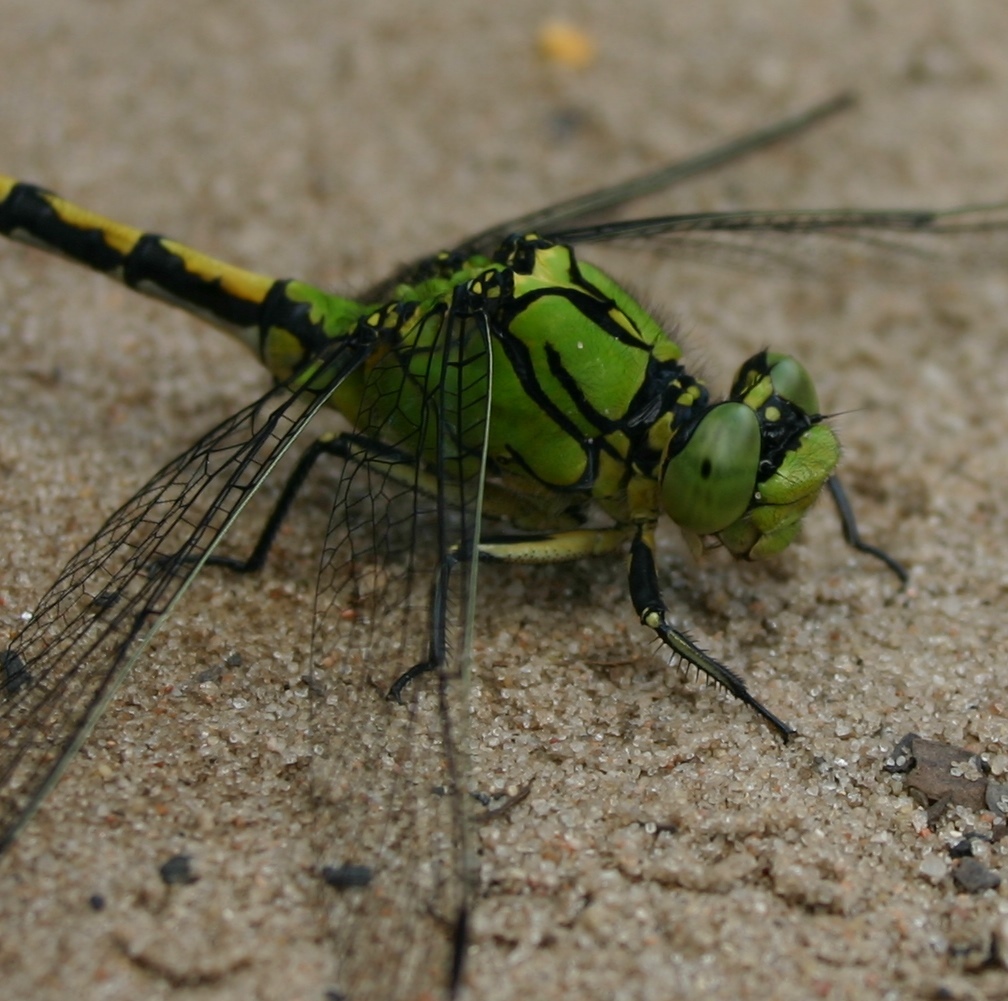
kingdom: Animalia
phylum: Arthropoda
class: Insecta
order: Odonata
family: Gomphidae
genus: Ophiogomphus
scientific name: Ophiogomphus cecilia
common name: Green snaketail
